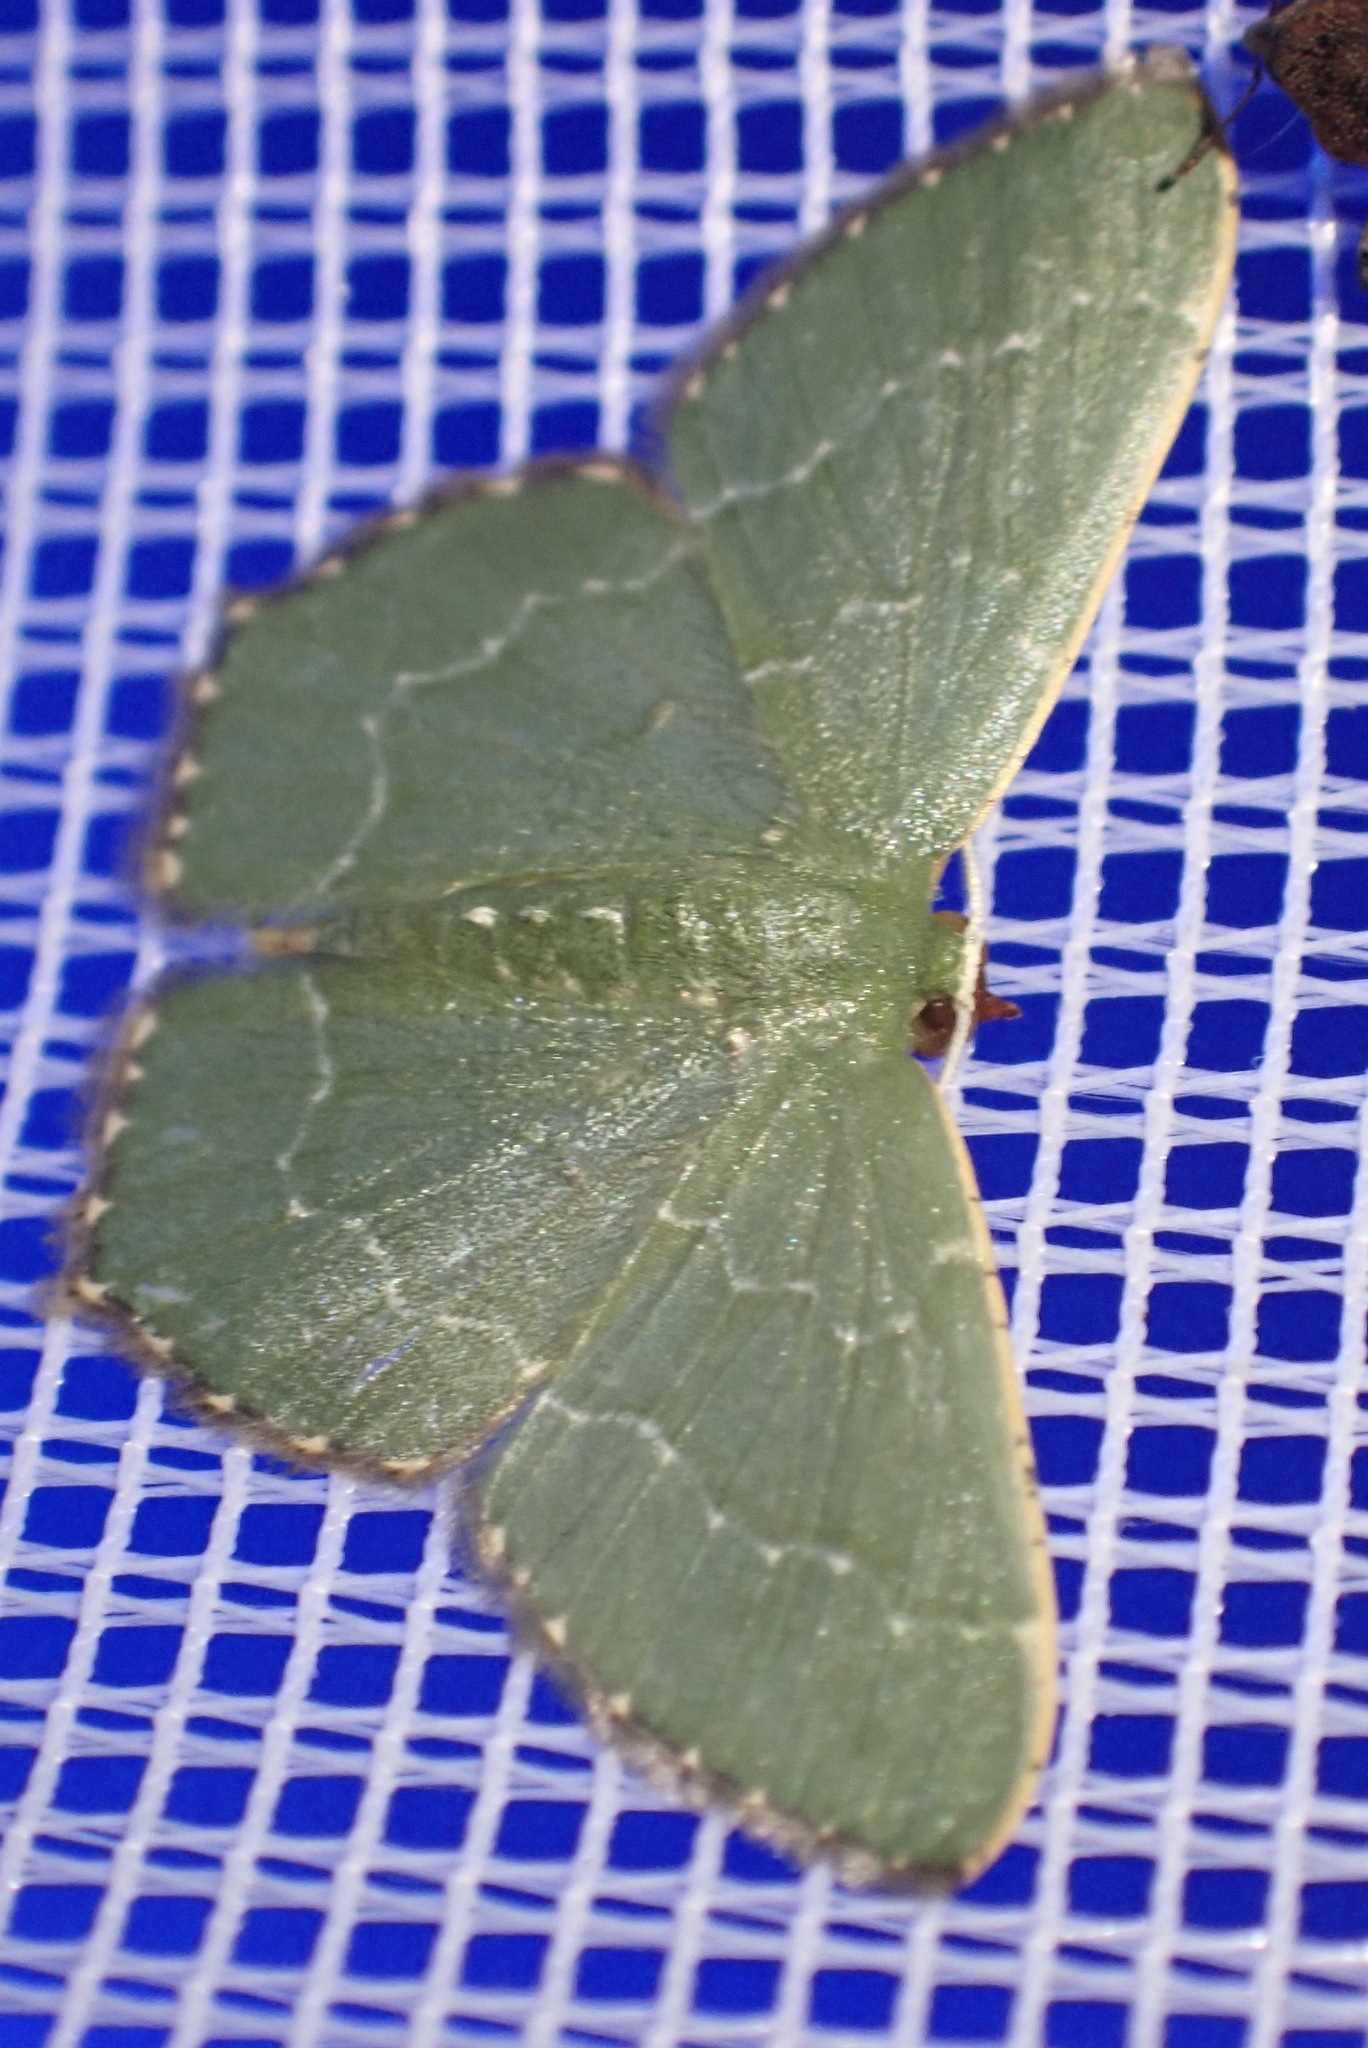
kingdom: Animalia
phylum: Arthropoda
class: Insecta
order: Lepidoptera
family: Geometridae
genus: Hemithea
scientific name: Hemithea wuka
